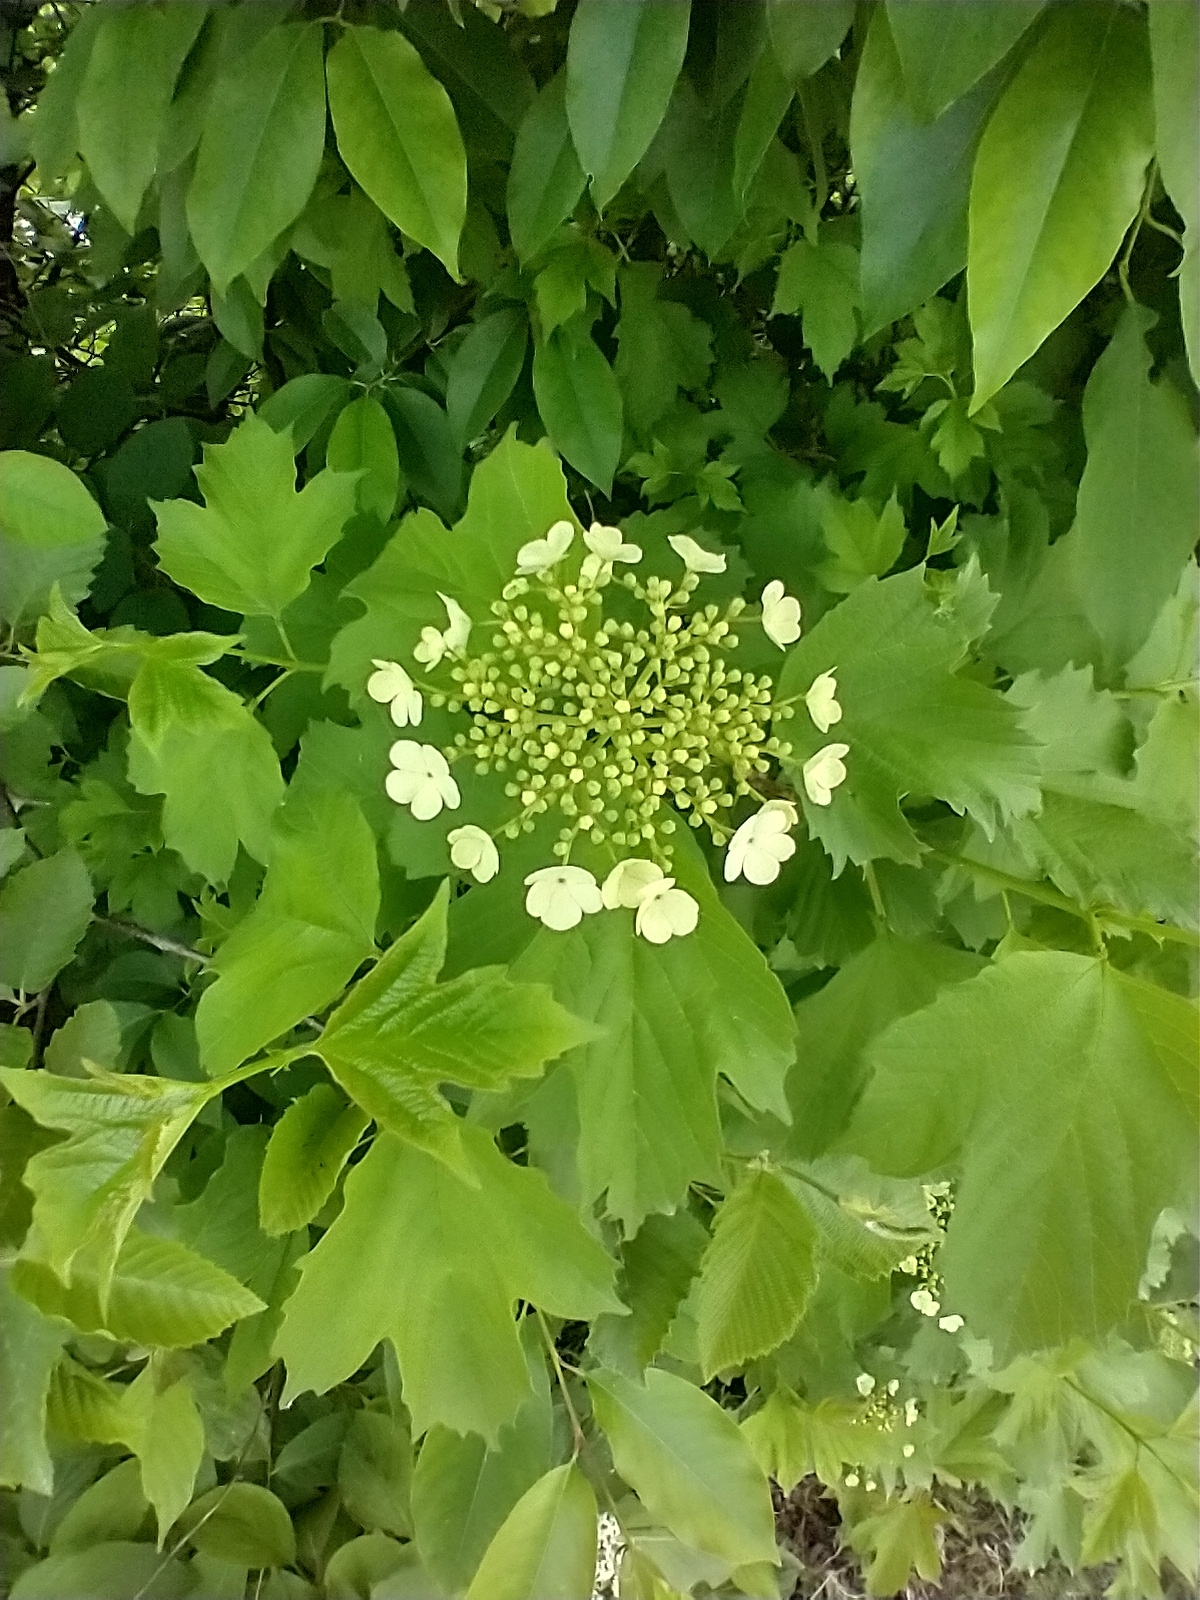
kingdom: Plantae
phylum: Tracheophyta
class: Magnoliopsida
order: Dipsacales
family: Viburnaceae
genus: Viburnum
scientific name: Viburnum opulus
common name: Guelder-rose
